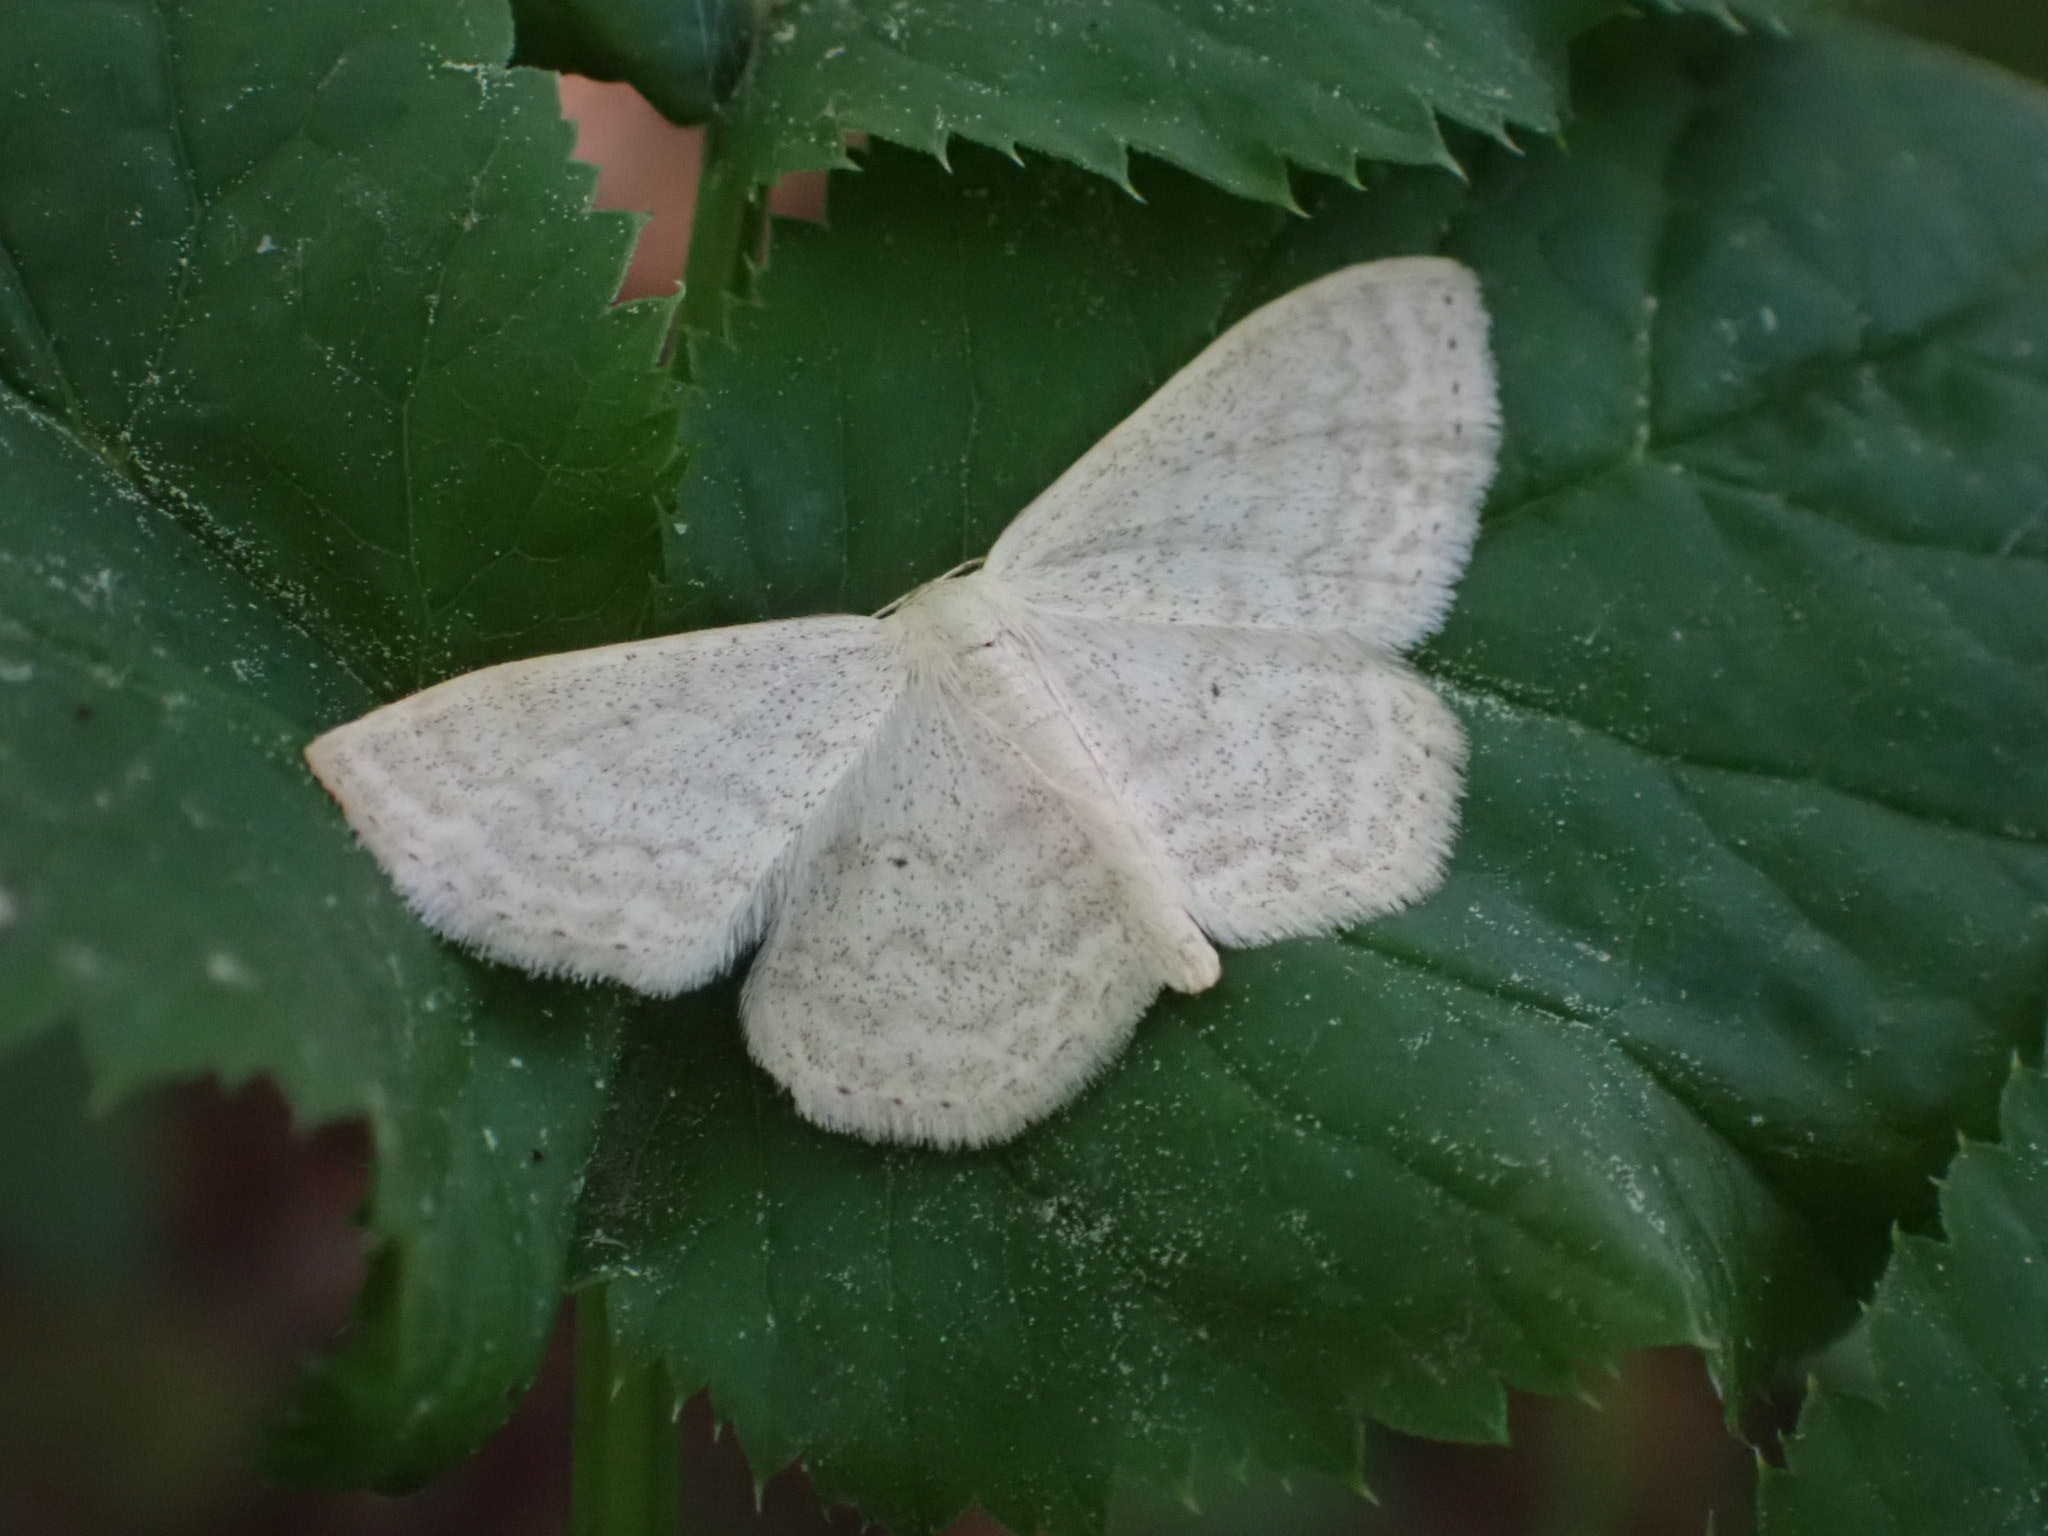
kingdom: Animalia
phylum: Arthropoda
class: Insecta
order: Lepidoptera
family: Geometridae
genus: Scopula
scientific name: Scopula floslactata
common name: Cream wave
